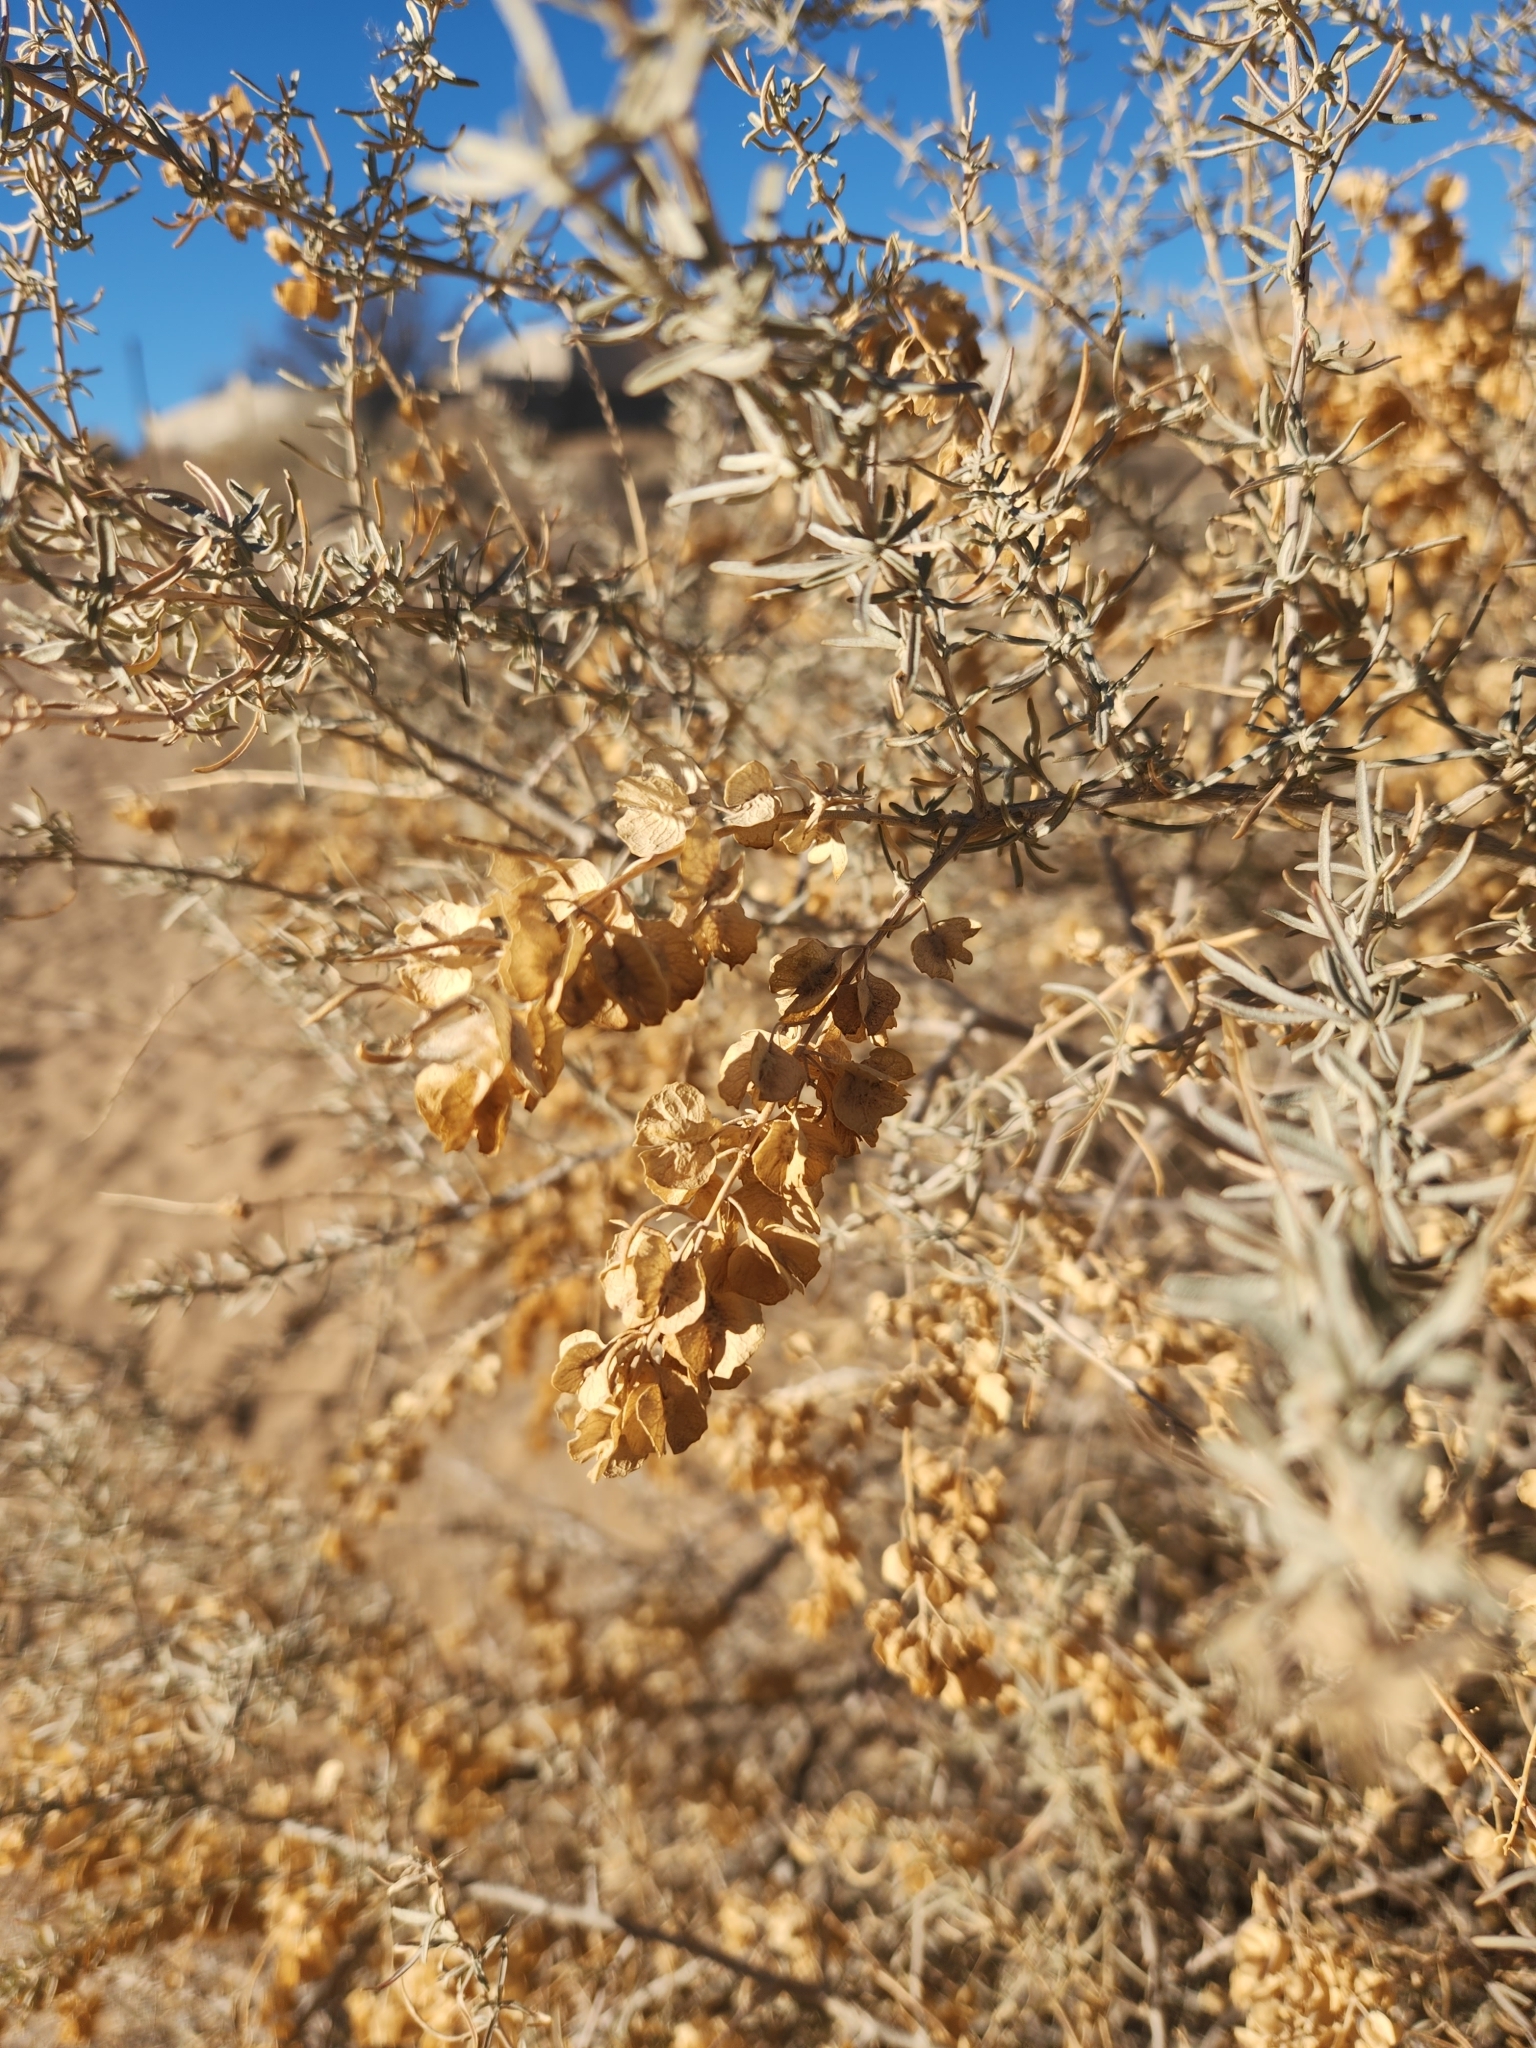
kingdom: Plantae
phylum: Tracheophyta
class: Magnoliopsida
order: Caryophyllales
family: Amaranthaceae
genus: Atriplex
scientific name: Atriplex canescens
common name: Four-wing saltbush
